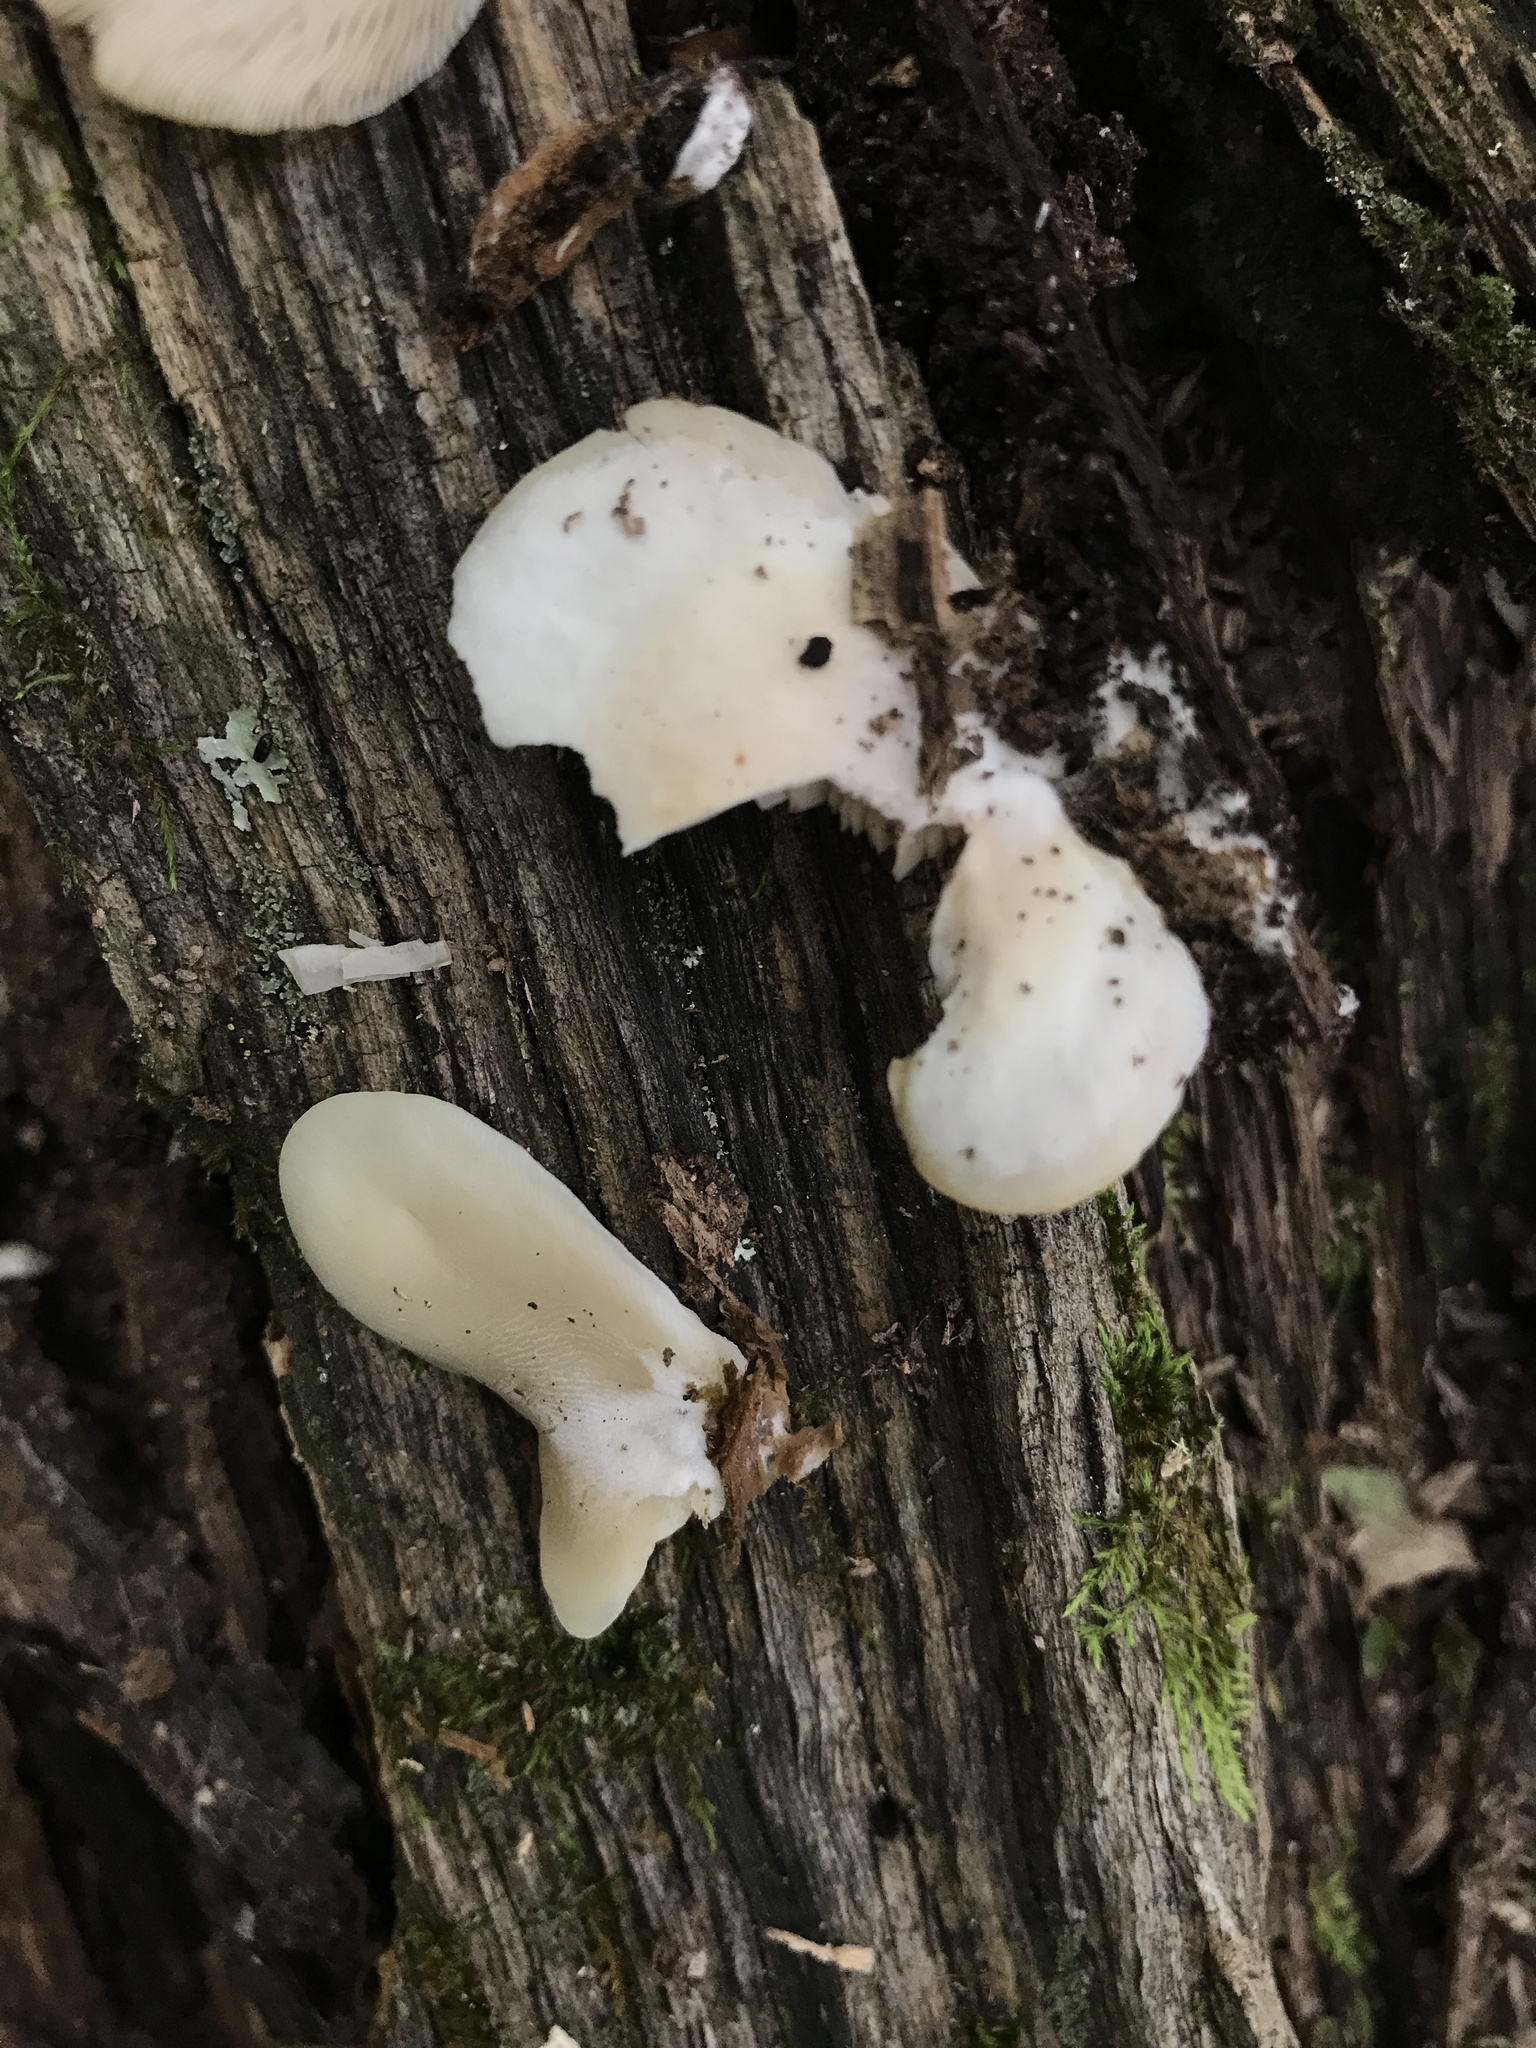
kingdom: Fungi
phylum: Basidiomycota
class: Agaricomycetes
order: Agaricales
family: Crepidotaceae
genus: Crepidotus
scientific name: Crepidotus applanatus
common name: Flat crep
